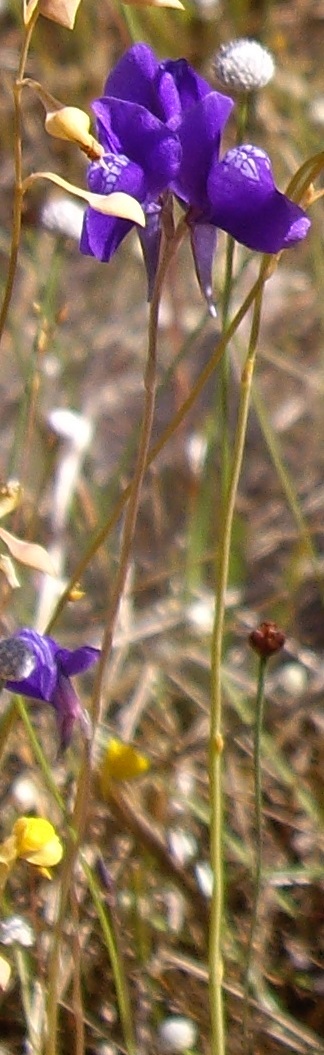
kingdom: Plantae
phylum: Tracheophyta
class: Magnoliopsida
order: Lamiales
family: Lentibulariaceae
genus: Utricularia
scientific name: Utricularia delphinioides
